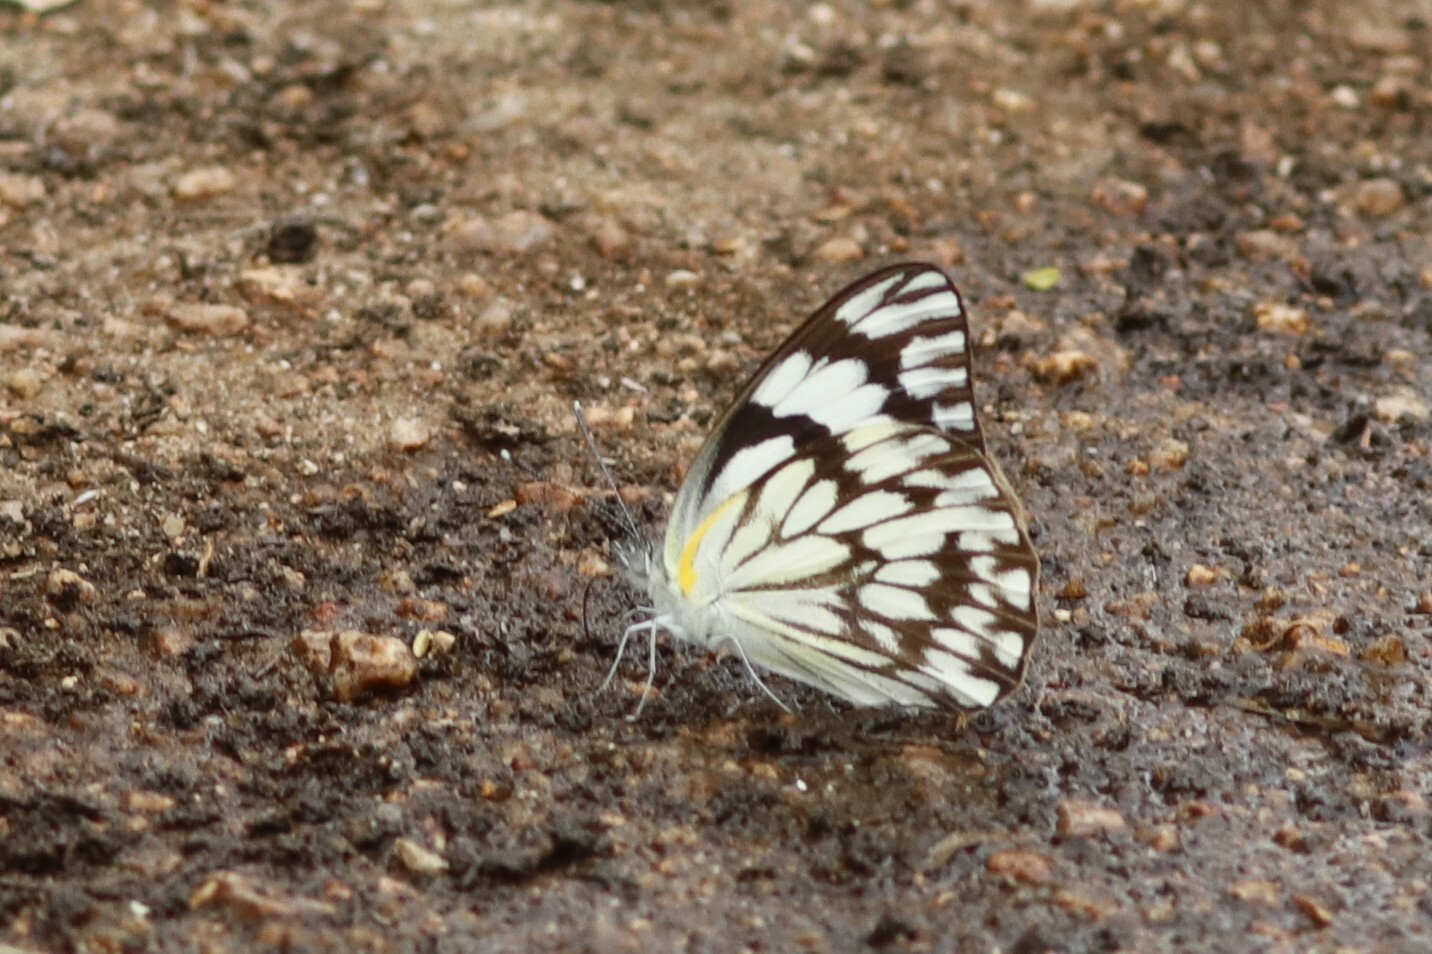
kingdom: Animalia
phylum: Arthropoda
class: Insecta
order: Lepidoptera
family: Pieridae
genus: Belenois
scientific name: Belenois gidica
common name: Pointed caper white
